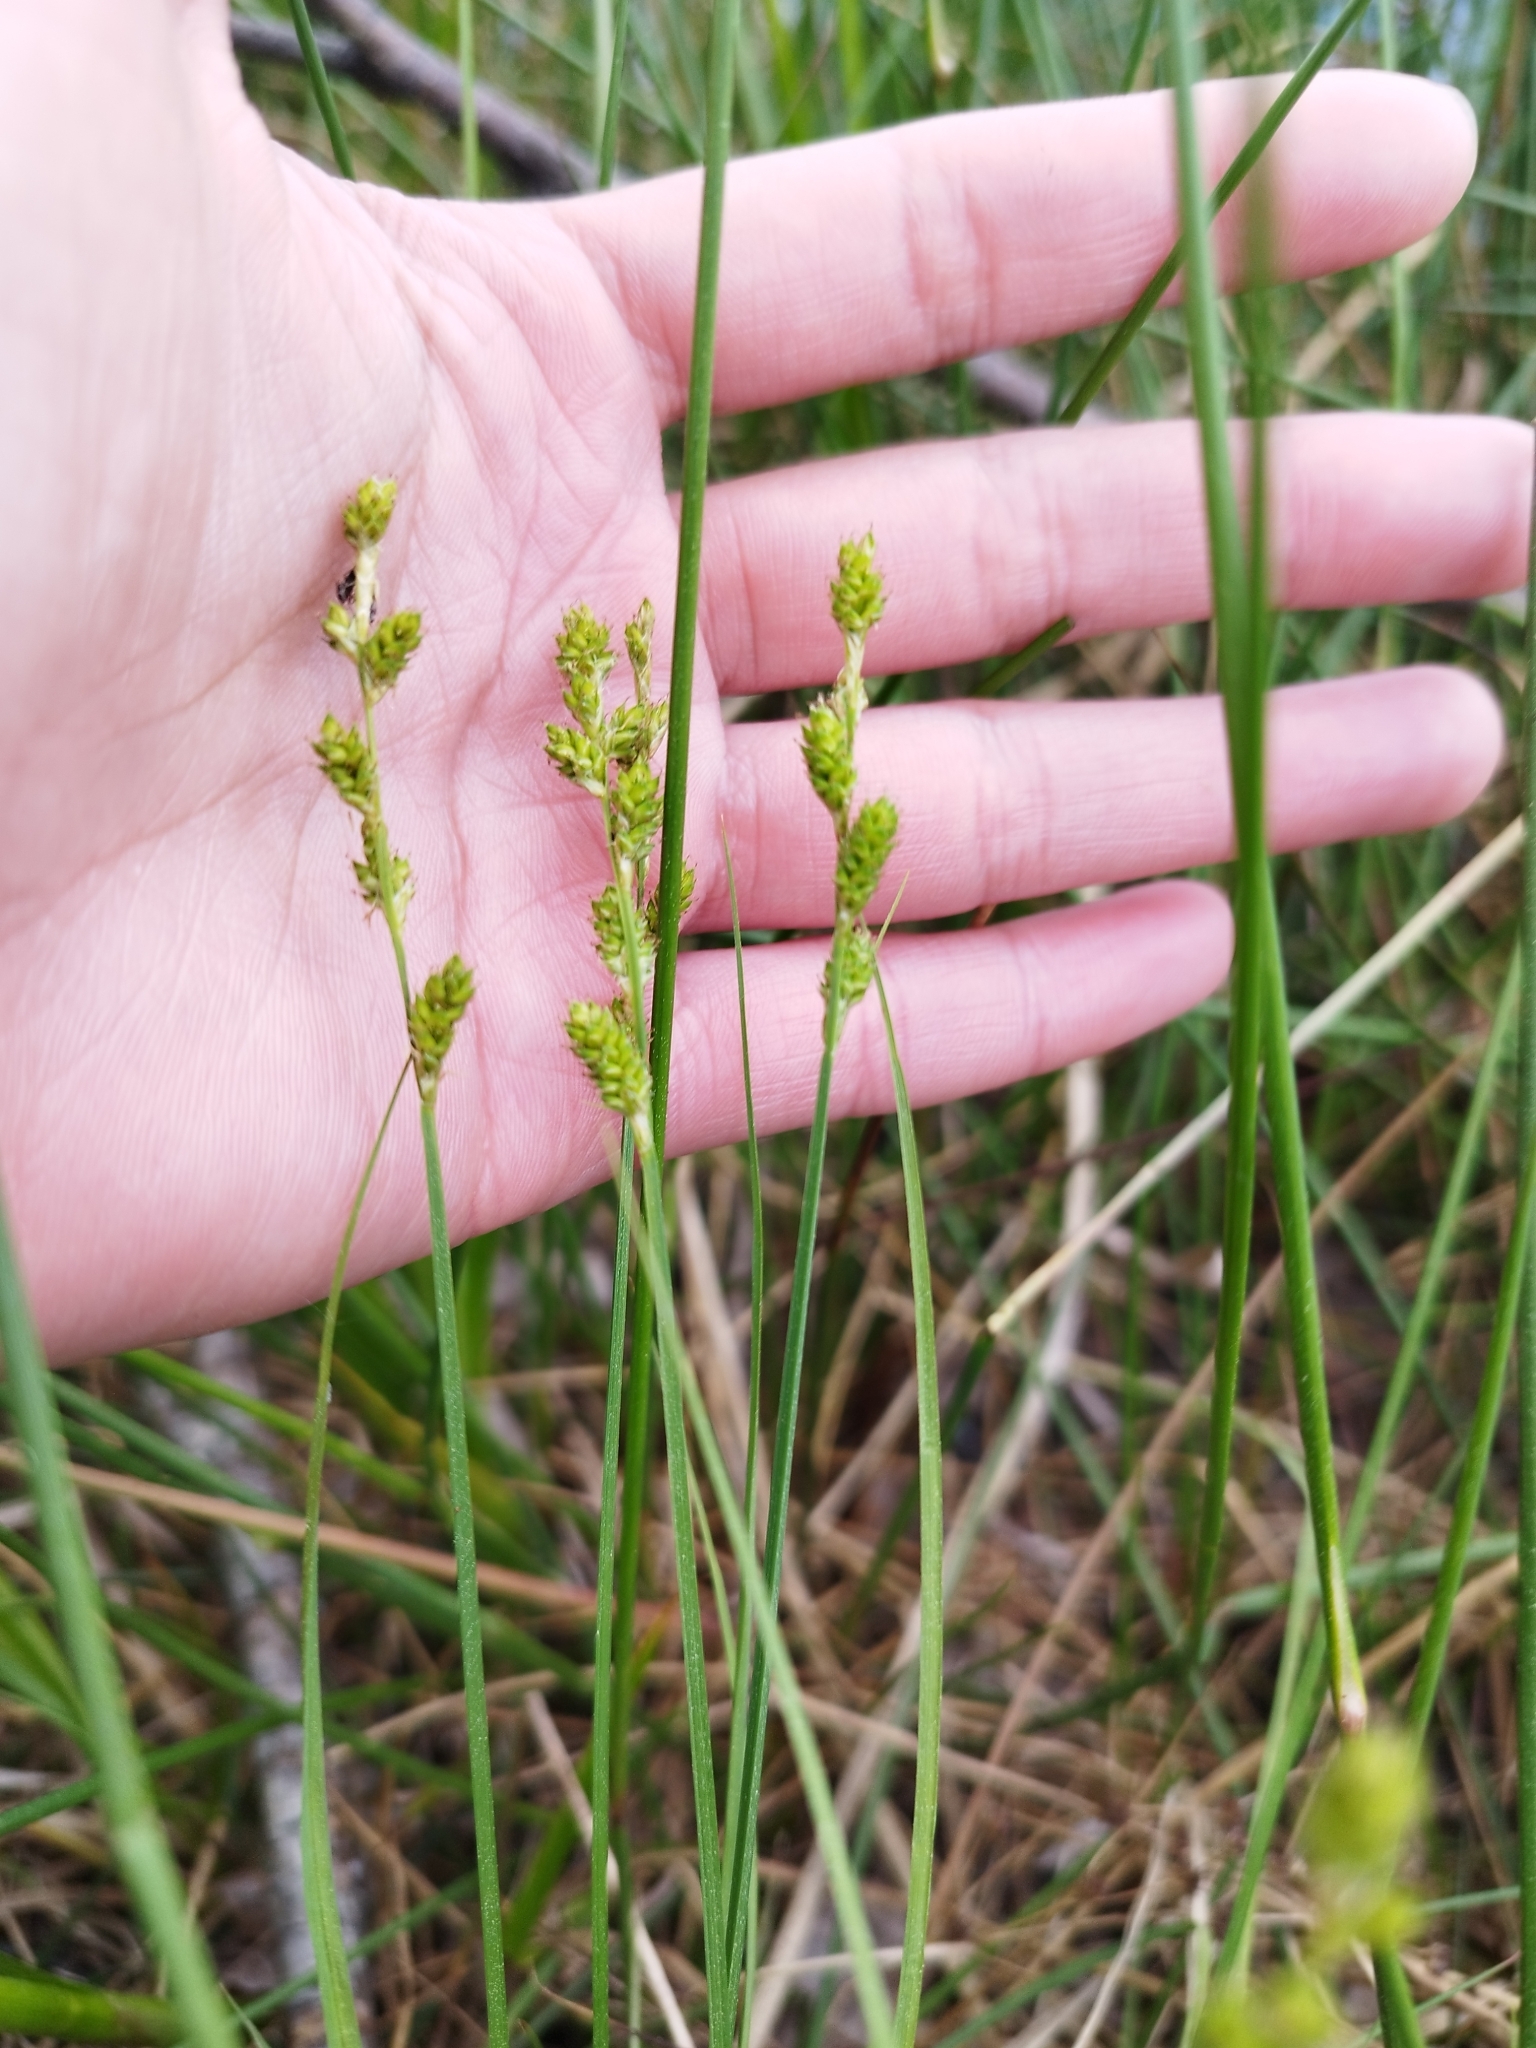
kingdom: Plantae
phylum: Tracheophyta
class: Liliopsida
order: Poales
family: Cyperaceae
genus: Carex
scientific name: Carex canescens
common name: White sedge
